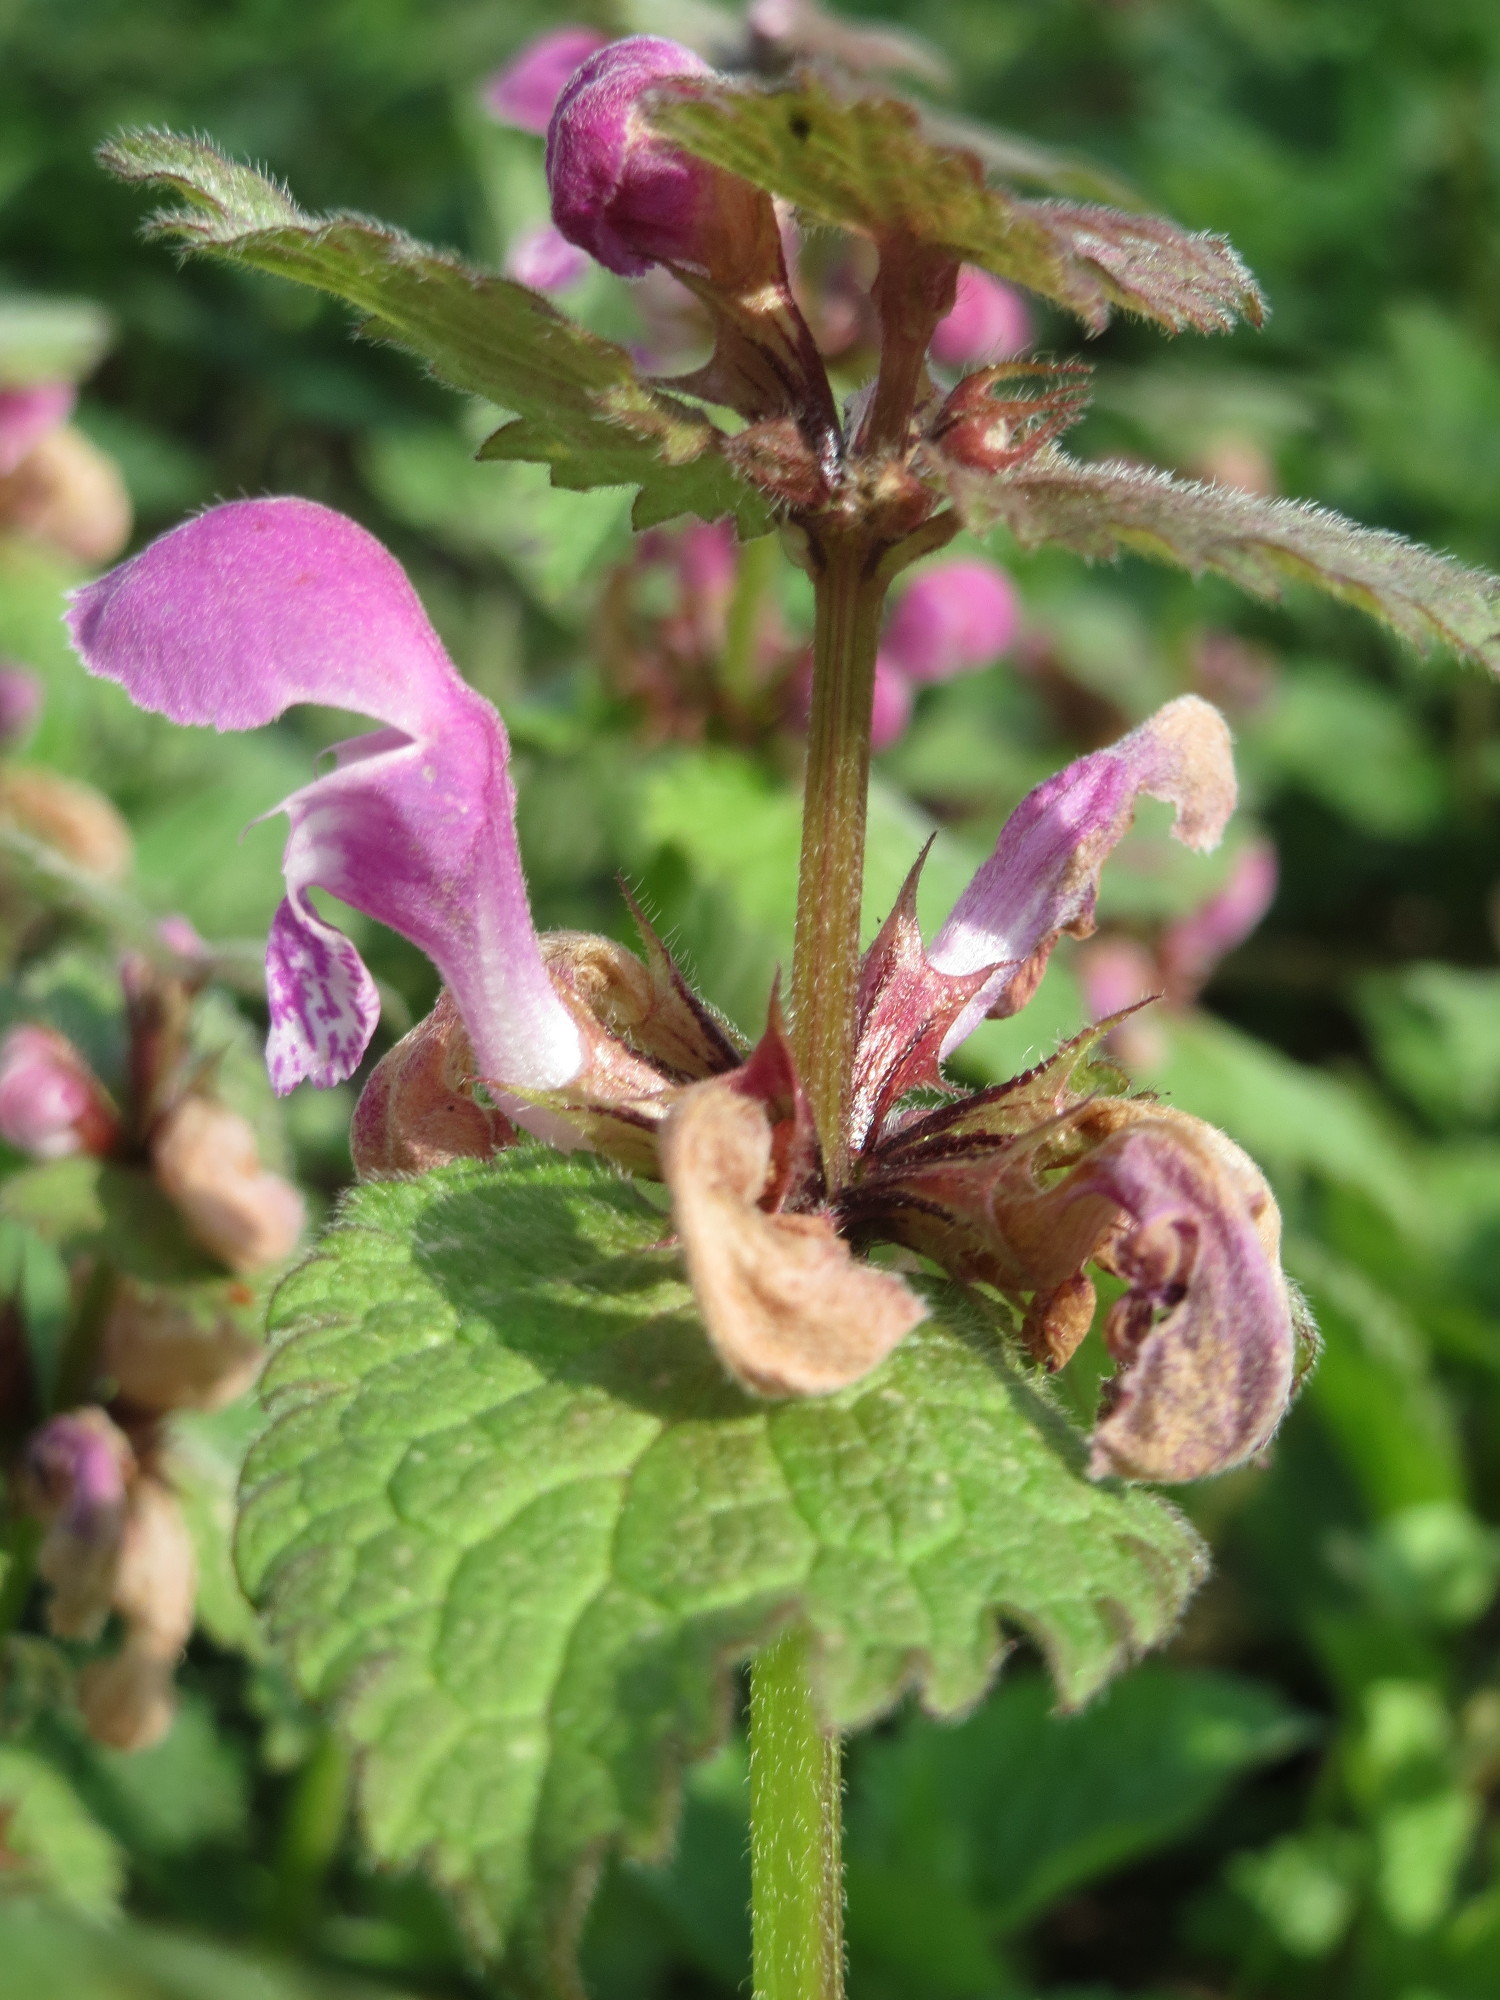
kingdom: Plantae
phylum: Tracheophyta
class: Magnoliopsida
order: Lamiales
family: Lamiaceae
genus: Lamium
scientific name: Lamium maculatum
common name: Spotted dead-nettle
